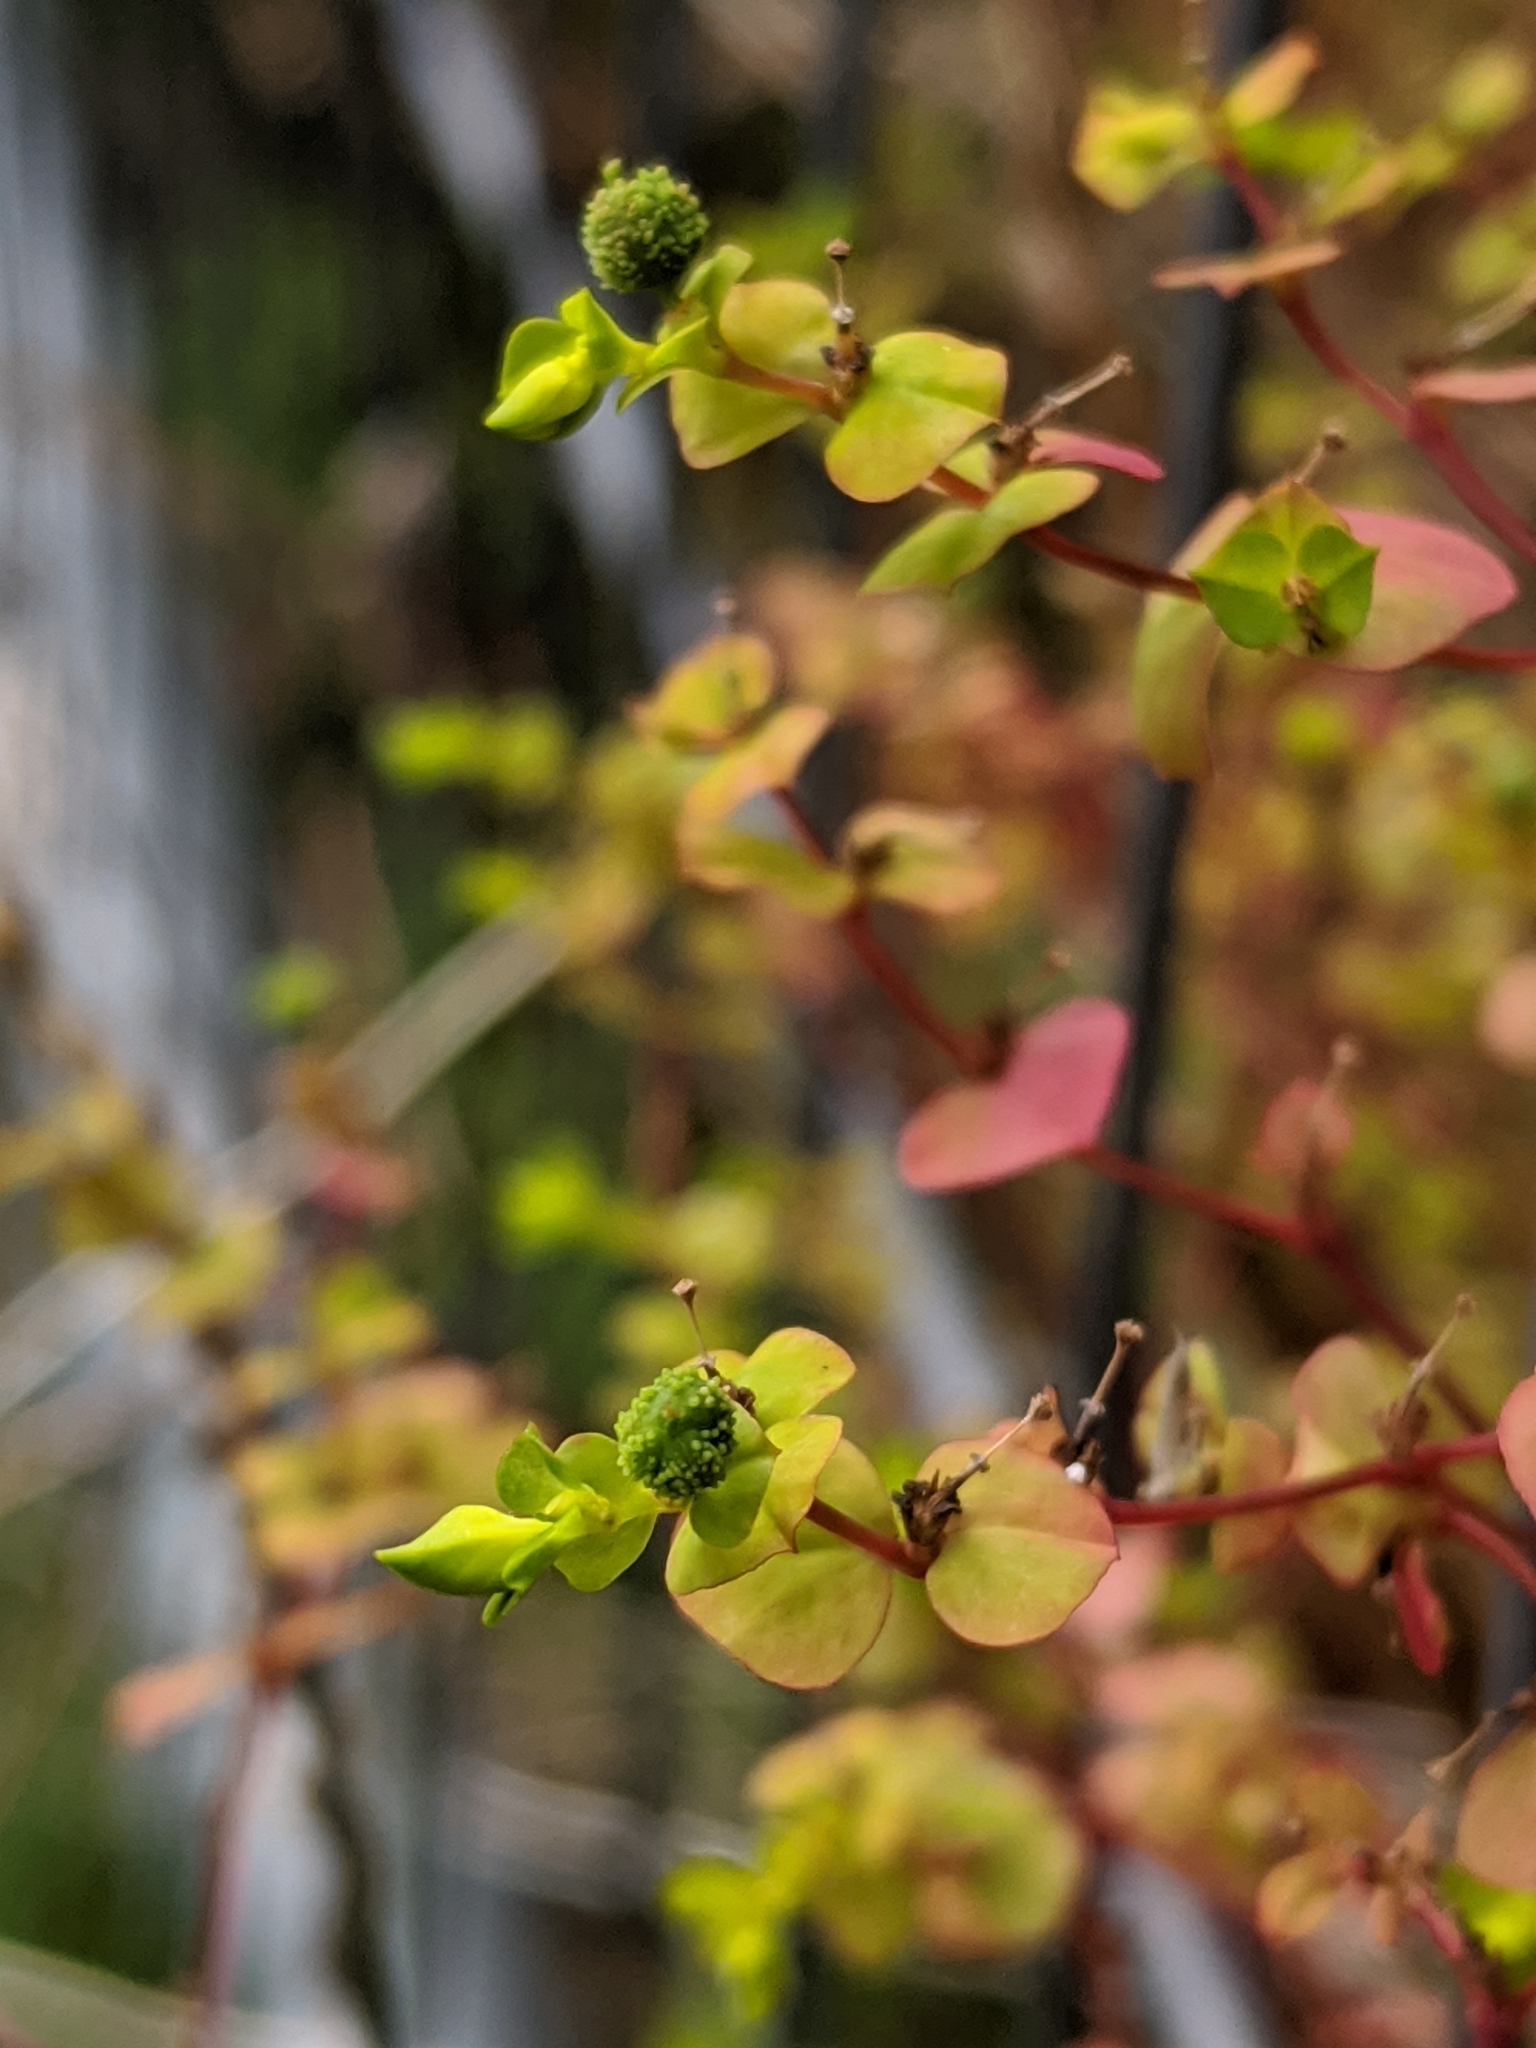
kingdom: Plantae
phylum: Tracheophyta
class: Magnoliopsida
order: Malpighiales
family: Euphorbiaceae
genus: Euphorbia
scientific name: Euphorbia stricta
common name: Upright spurge
